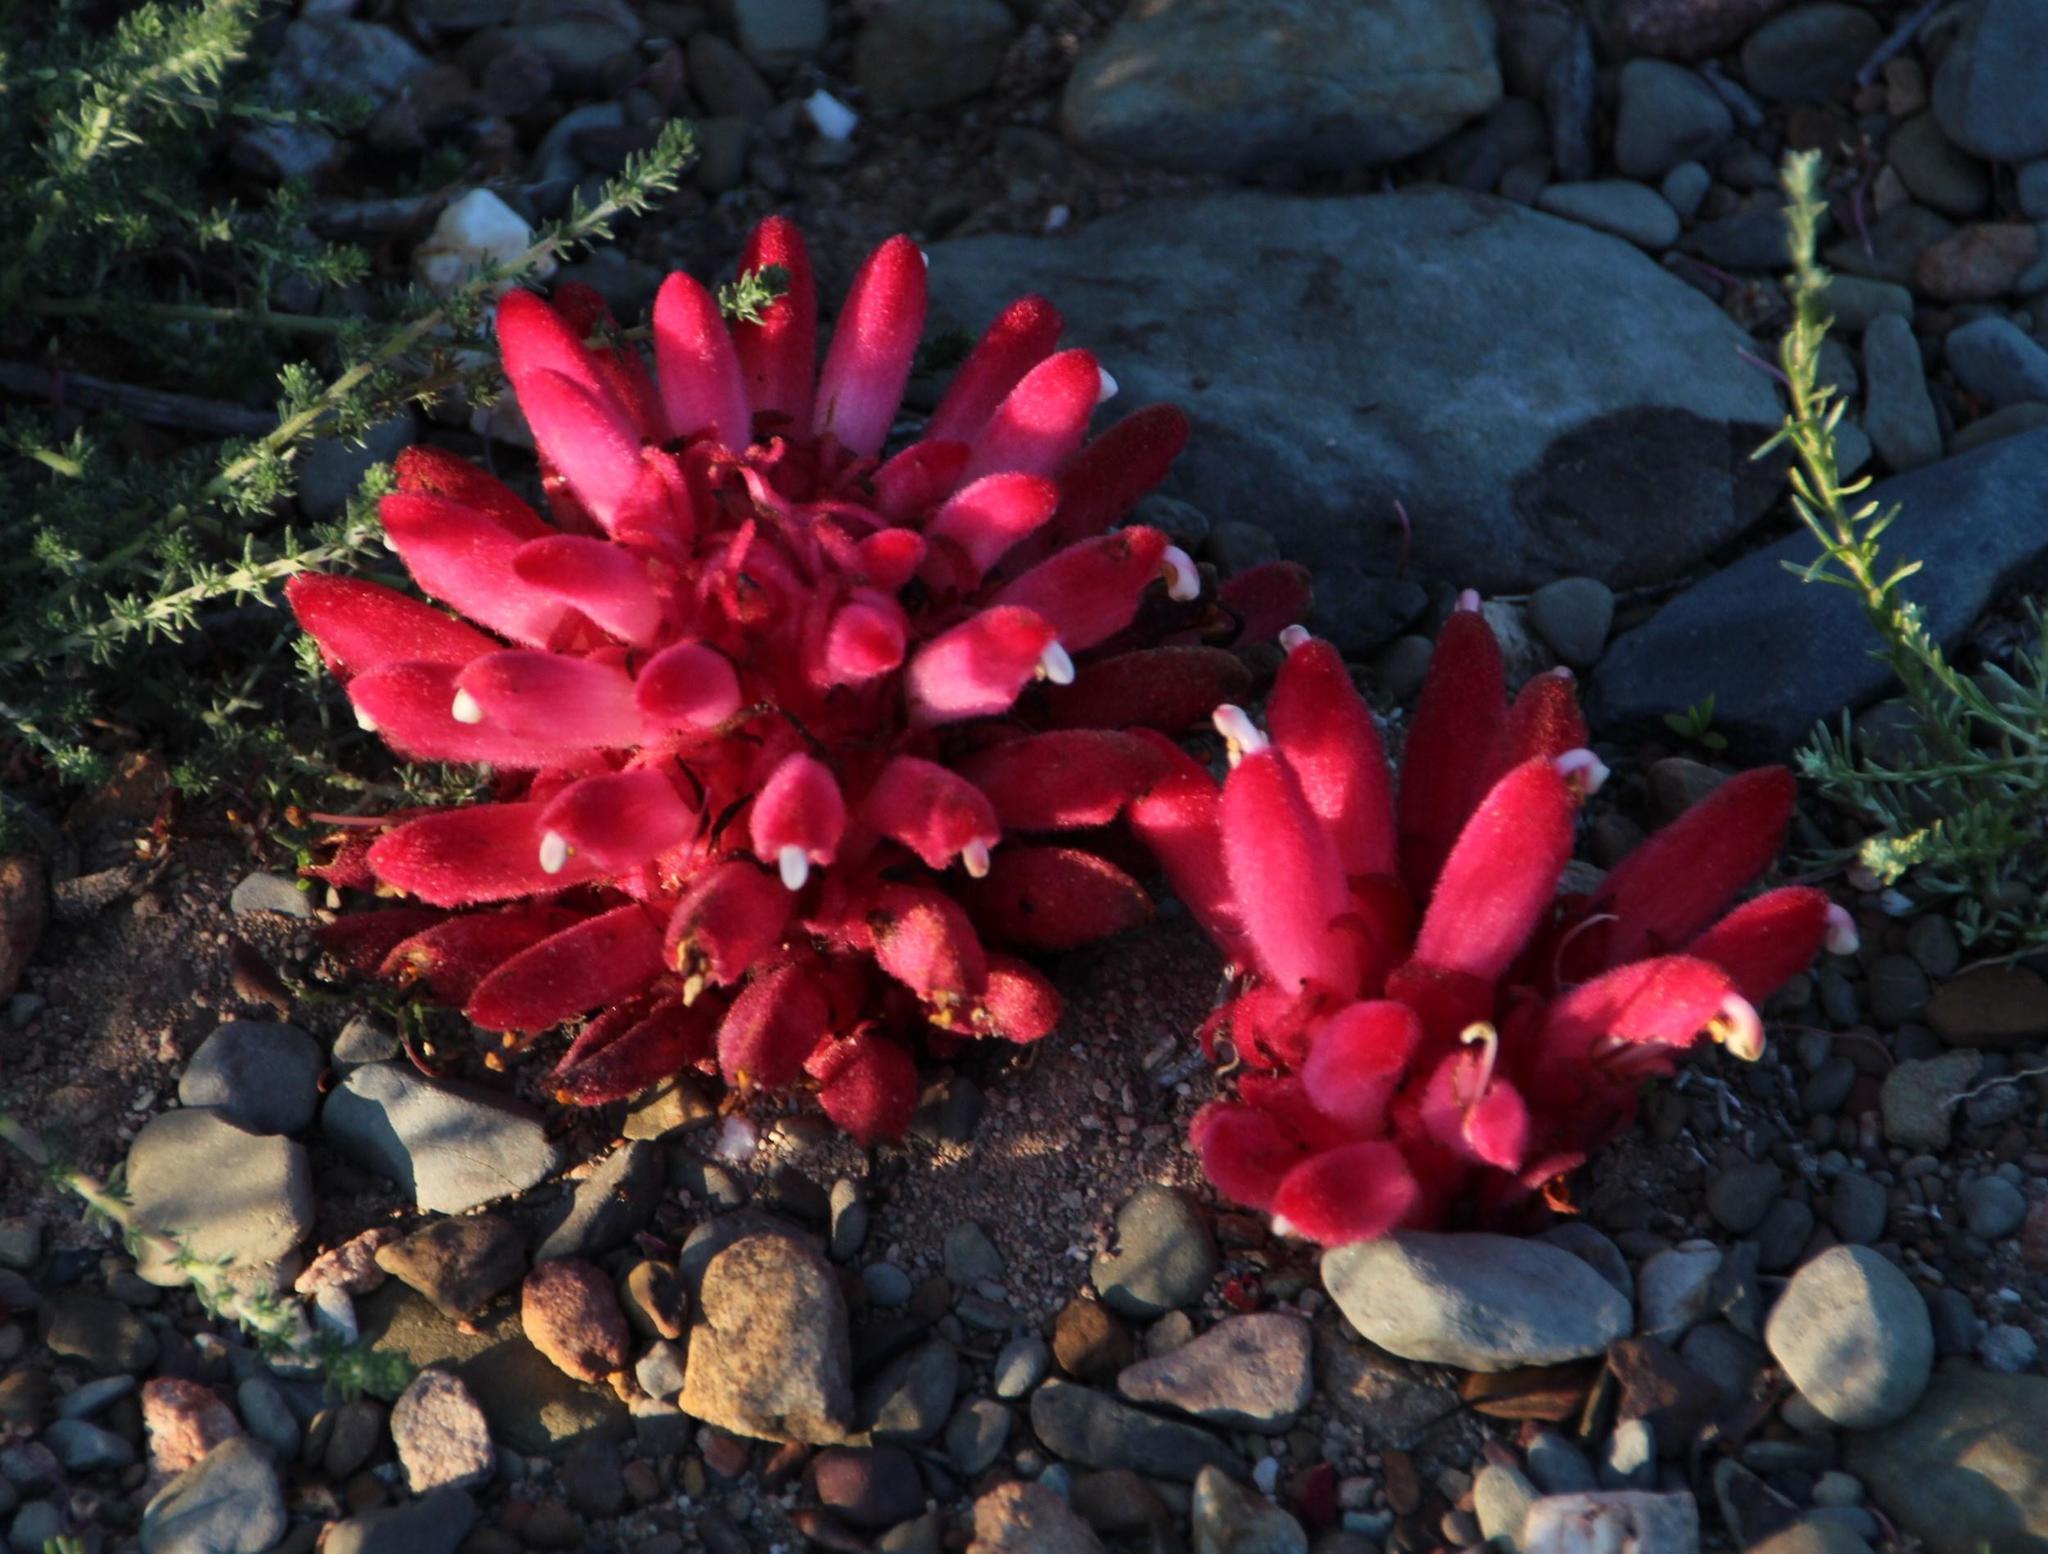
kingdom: Plantae
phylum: Tracheophyta
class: Magnoliopsida
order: Lamiales
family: Orobanchaceae
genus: Hyobanche
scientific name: Hyobanche sanguinea
